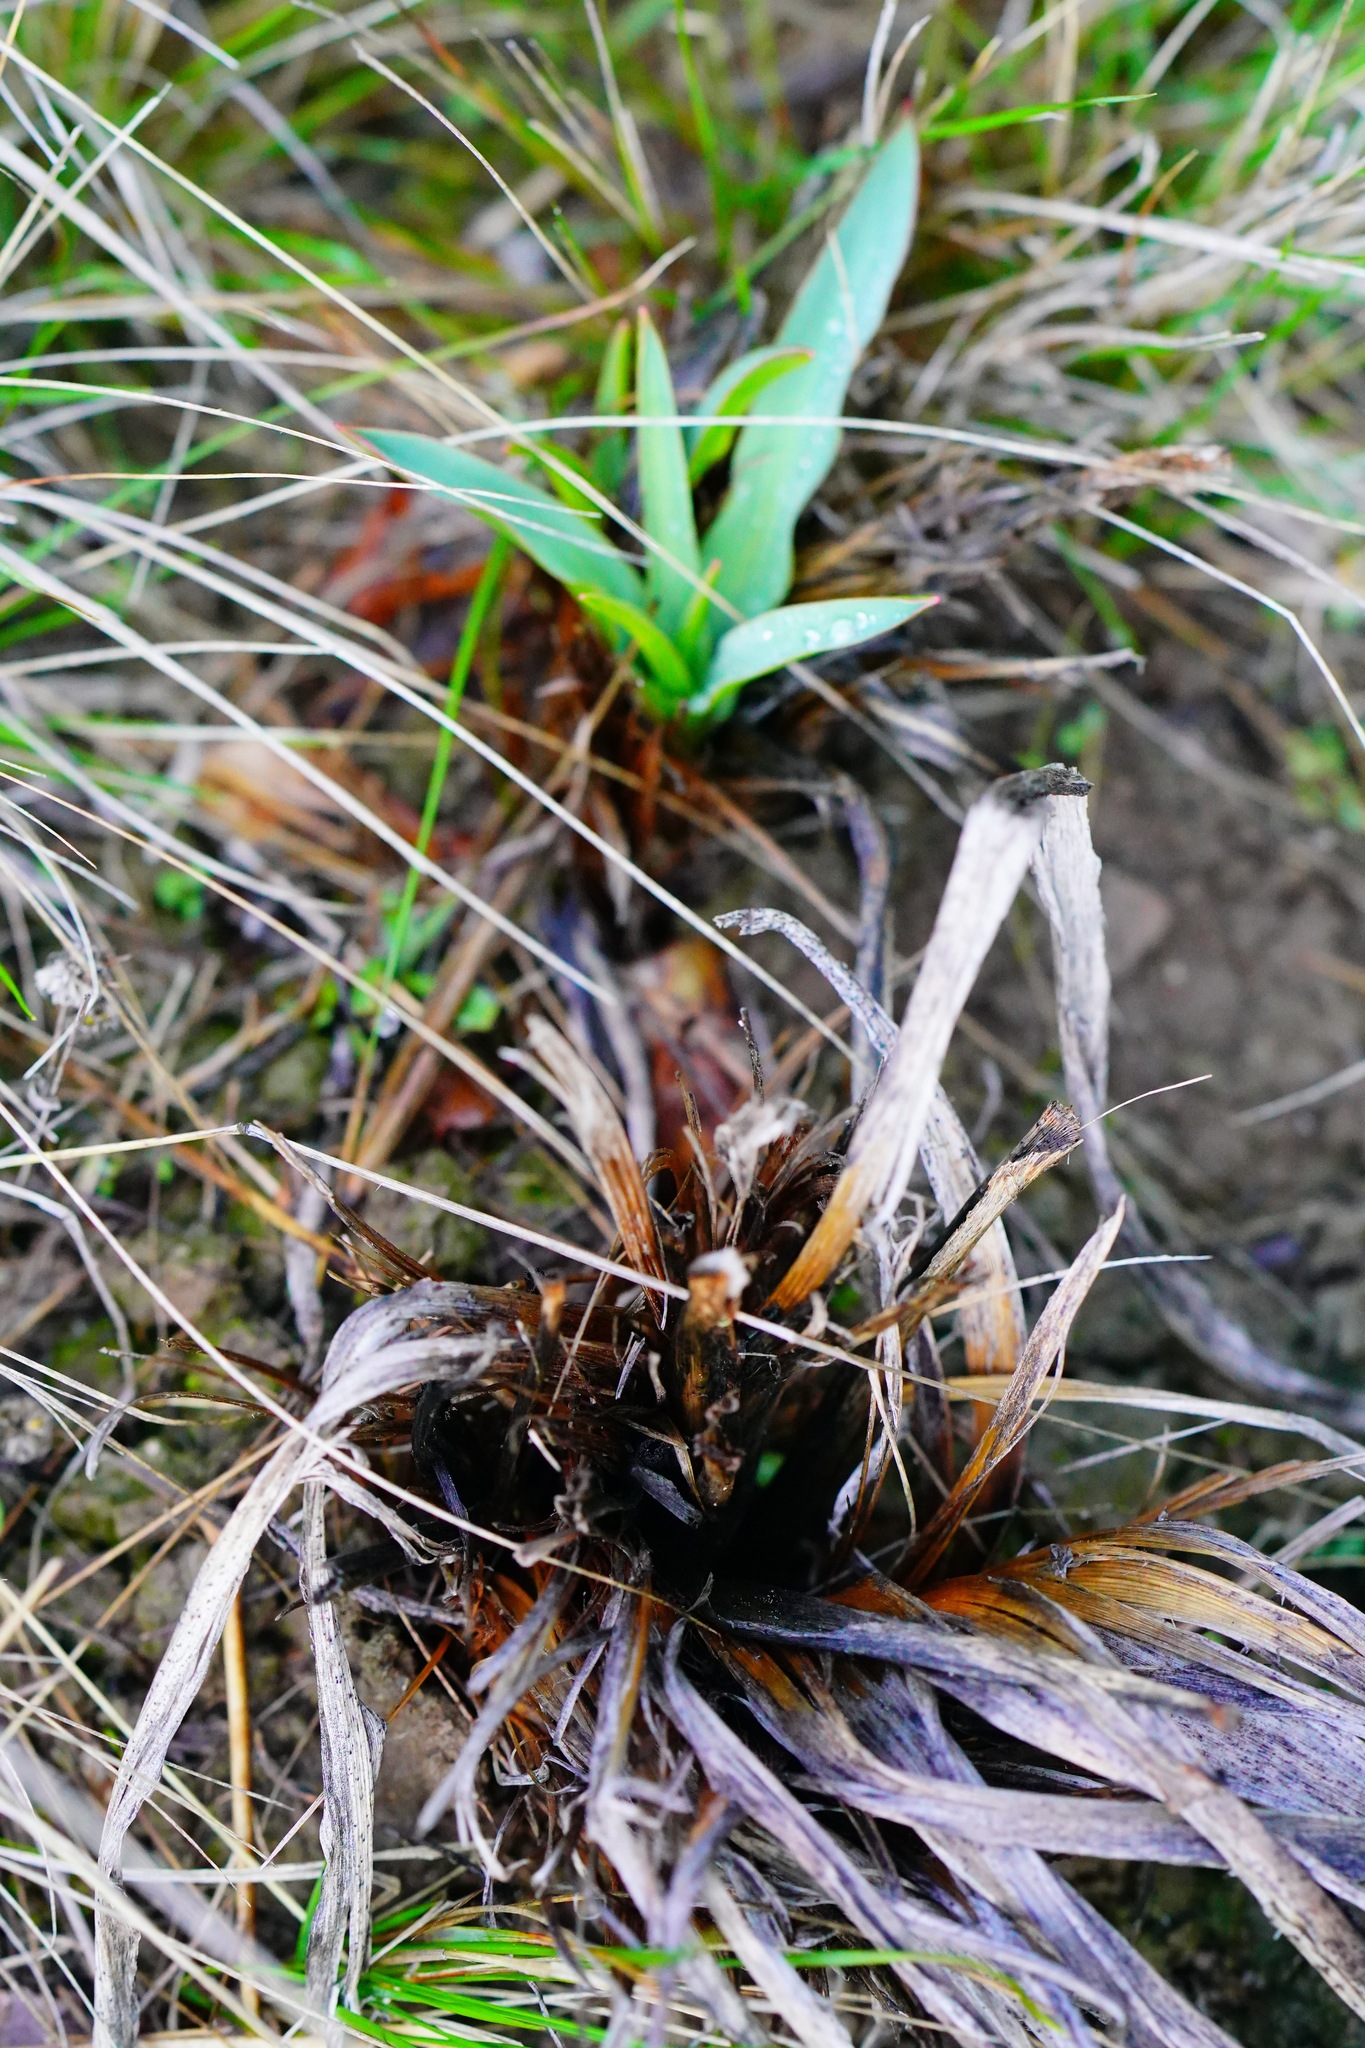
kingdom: Plantae
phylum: Tracheophyta
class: Liliopsida
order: Asparagales
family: Asparagaceae
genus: Chlorogalum
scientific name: Chlorogalum pomeridianum
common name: Amole
